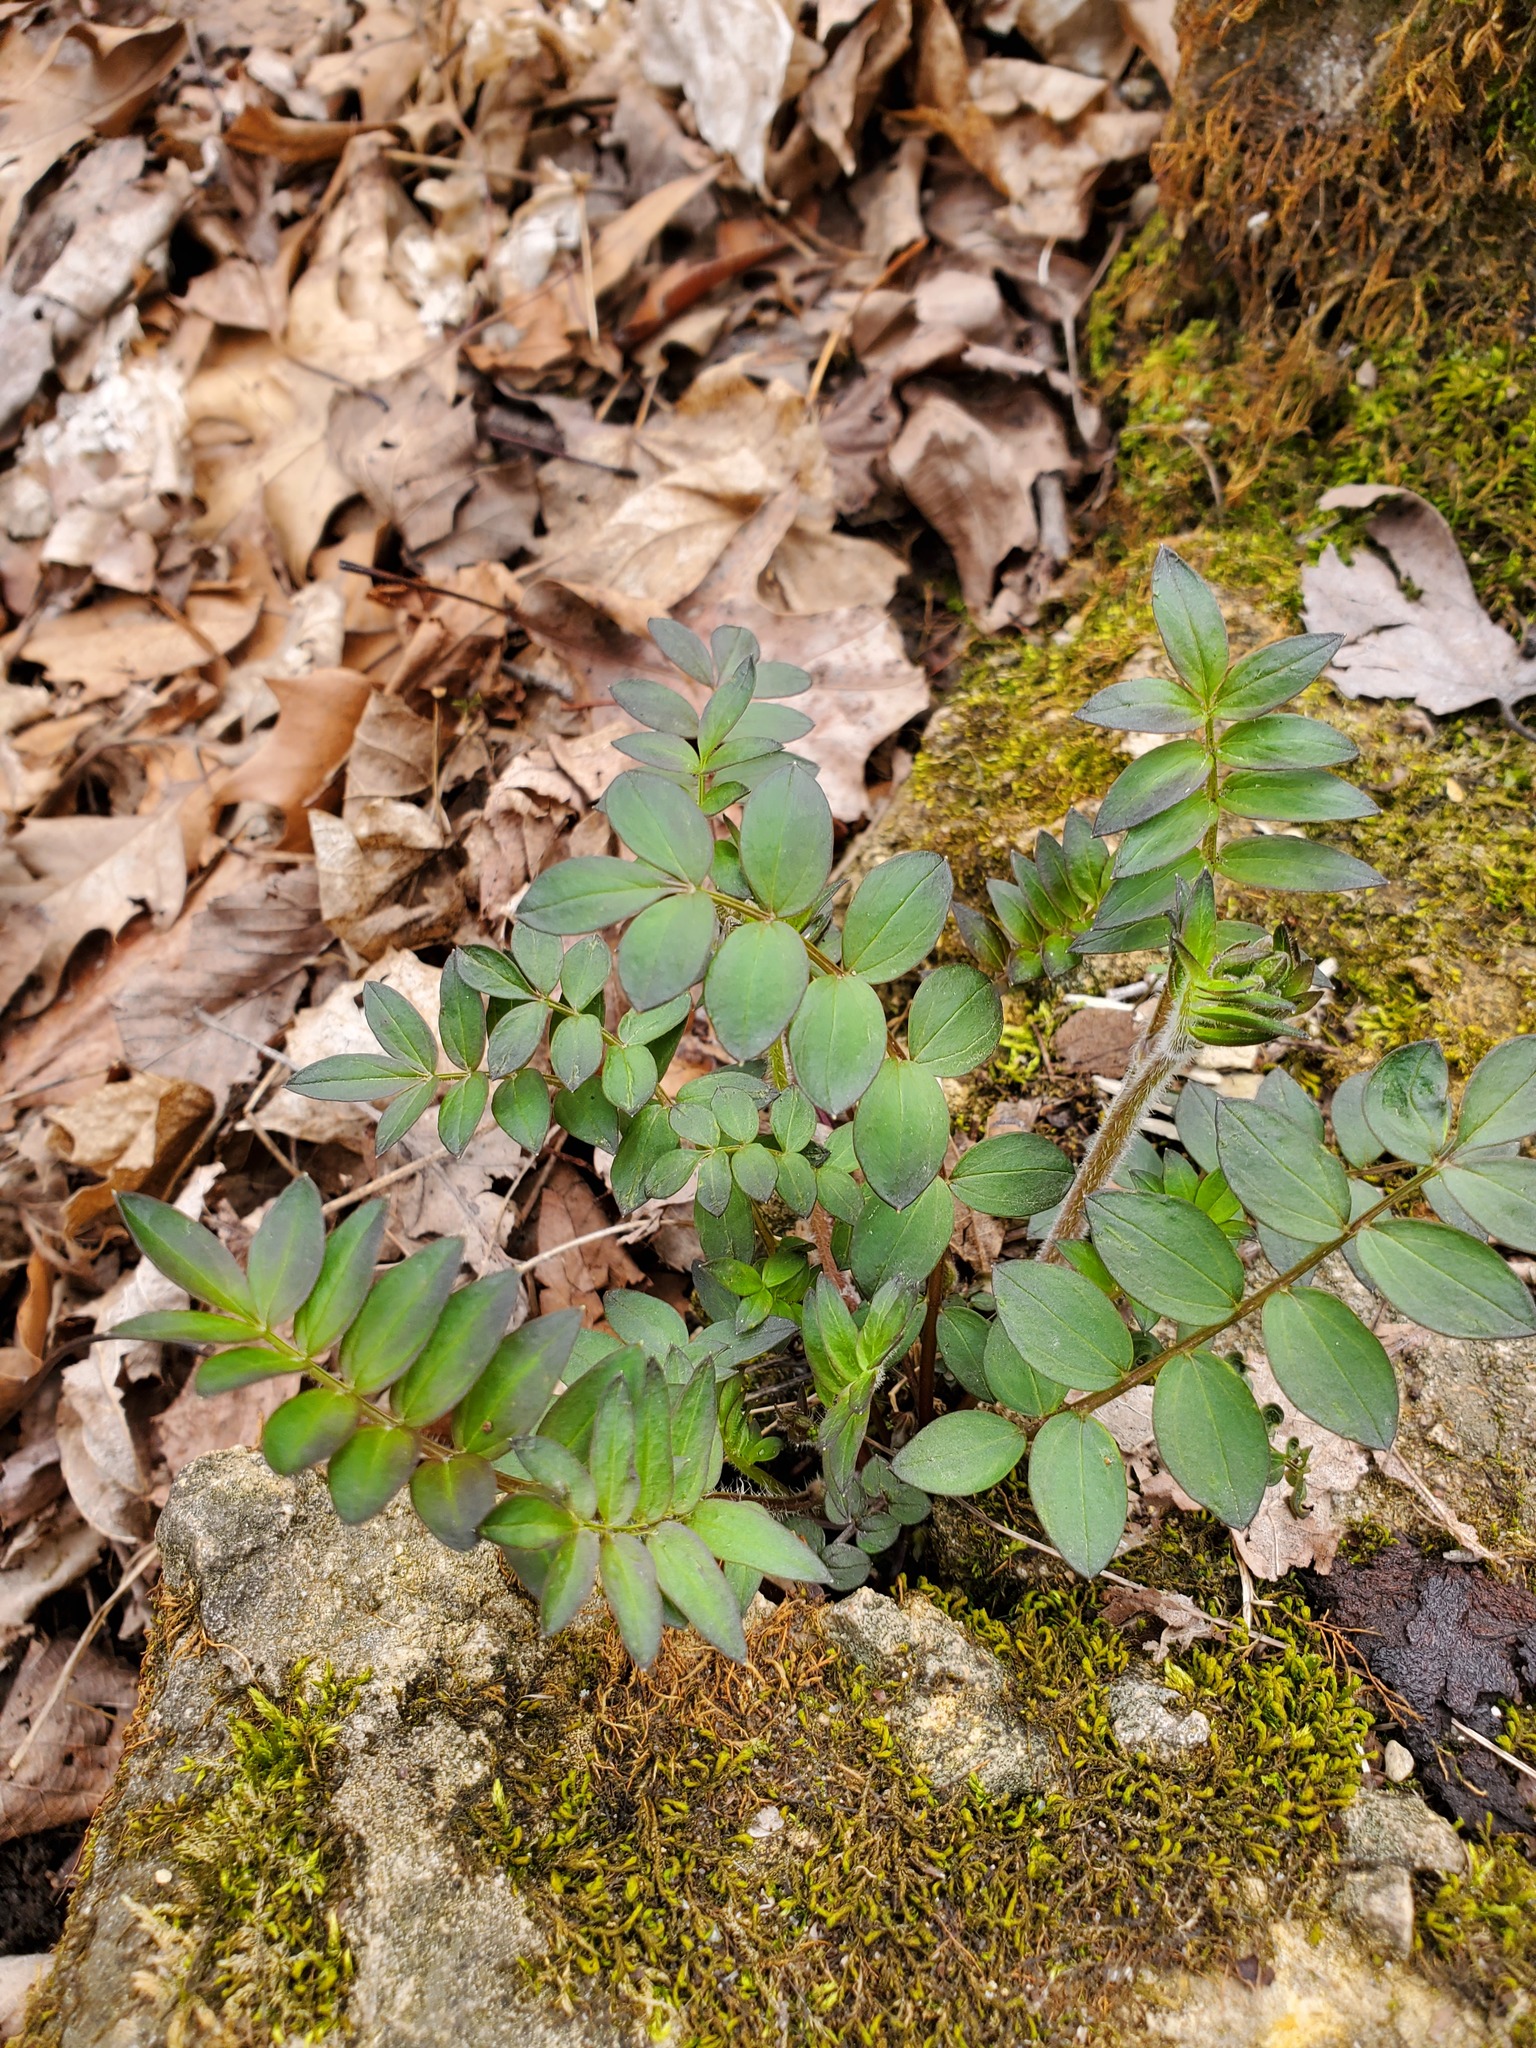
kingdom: Plantae
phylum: Tracheophyta
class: Magnoliopsida
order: Ericales
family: Polemoniaceae
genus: Polemonium
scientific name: Polemonium reptans
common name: Creeping jacob's-ladder
